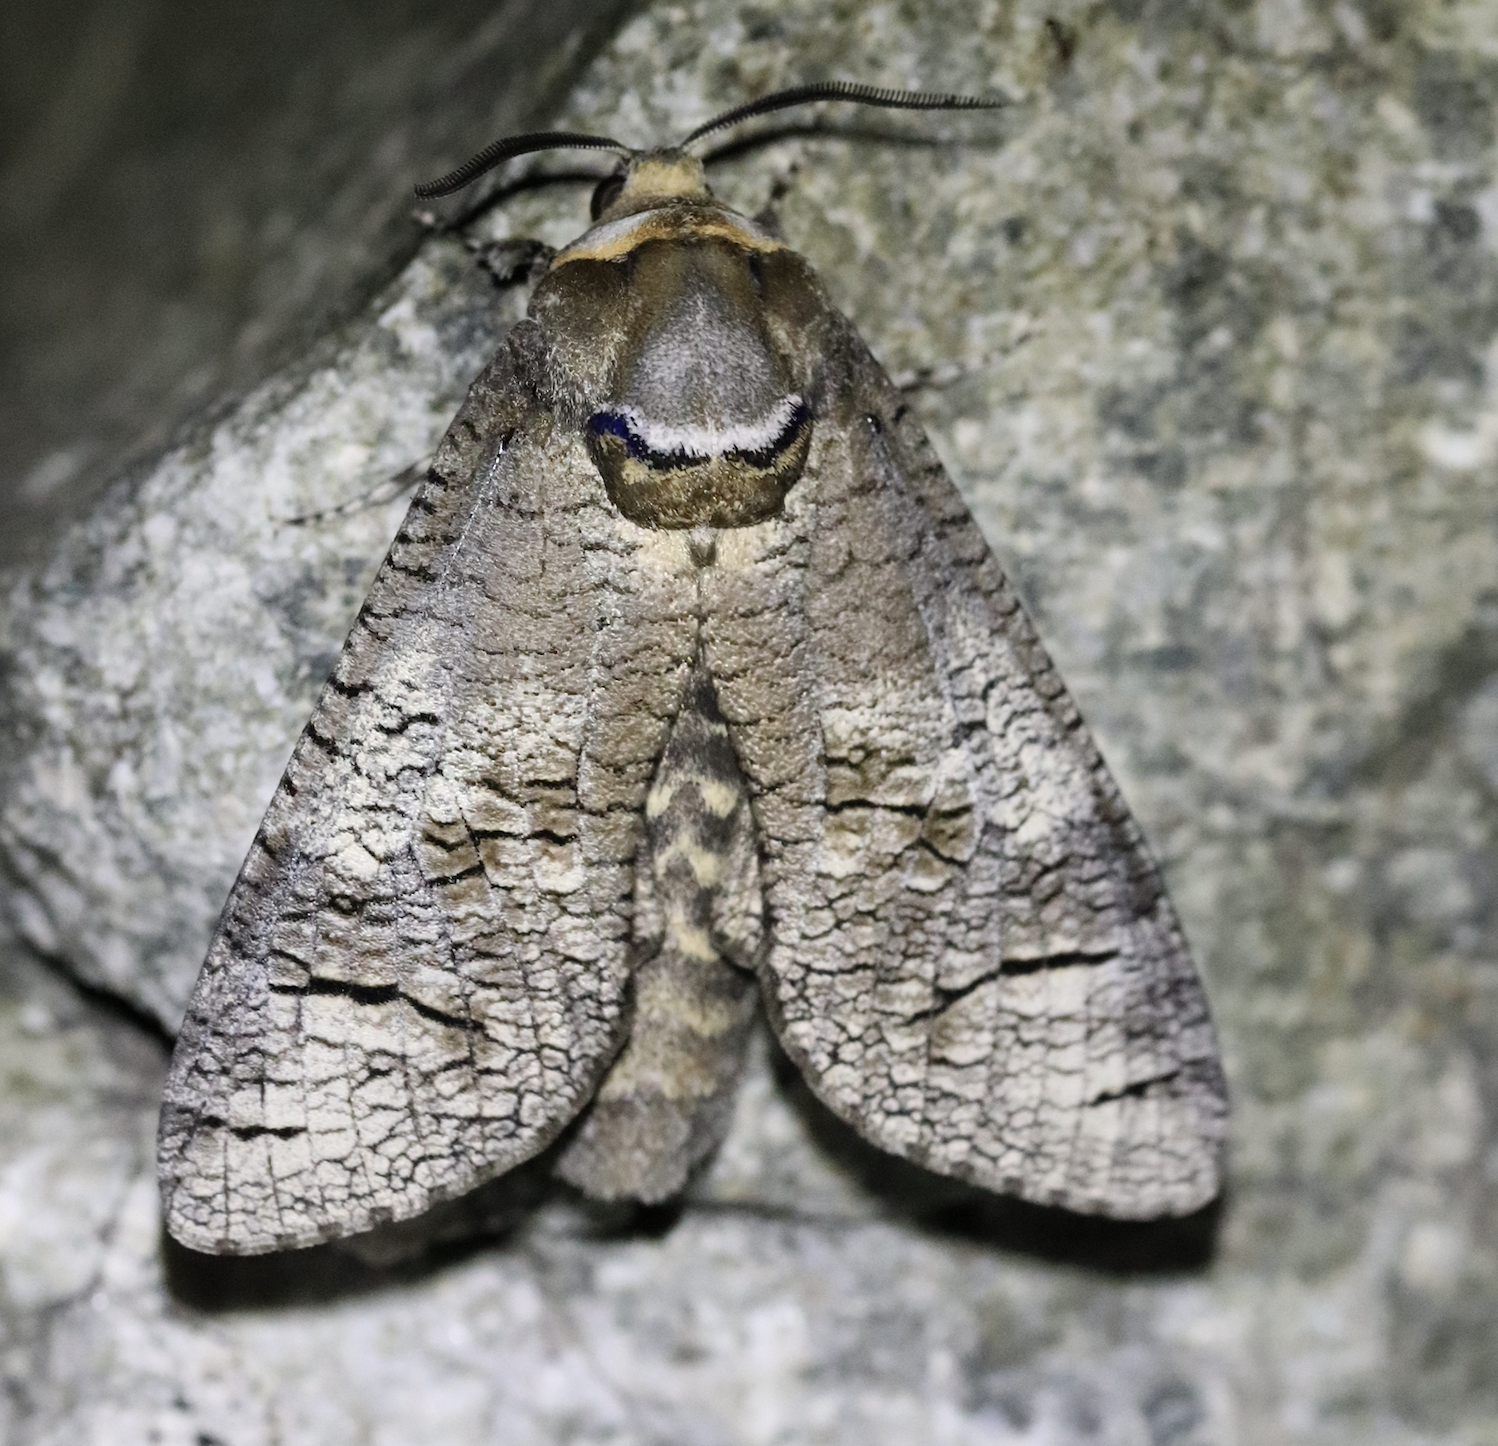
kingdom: Animalia
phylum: Arthropoda
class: Insecta
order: Lepidoptera
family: Cossidae
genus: Cossus
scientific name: Cossus cossus
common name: Goat moth
